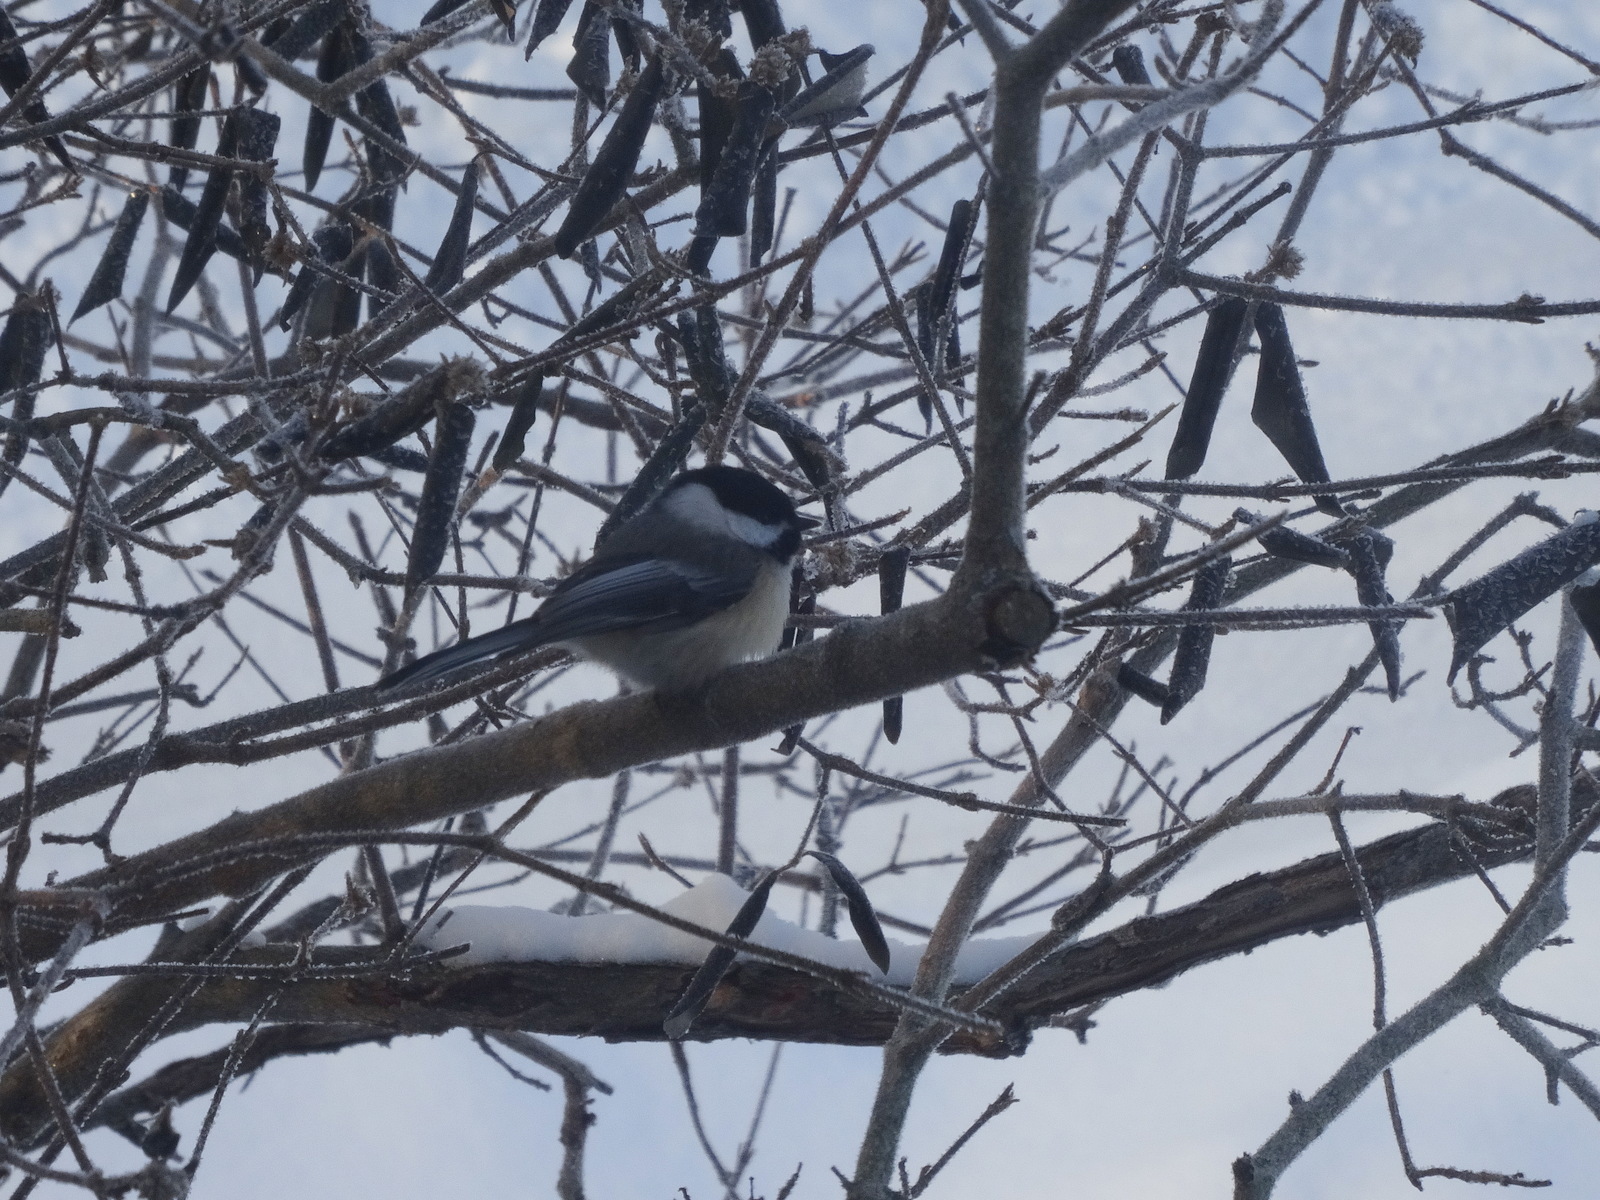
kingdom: Animalia
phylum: Chordata
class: Aves
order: Passeriformes
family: Paridae
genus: Poecile
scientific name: Poecile atricapillus
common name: Black-capped chickadee
